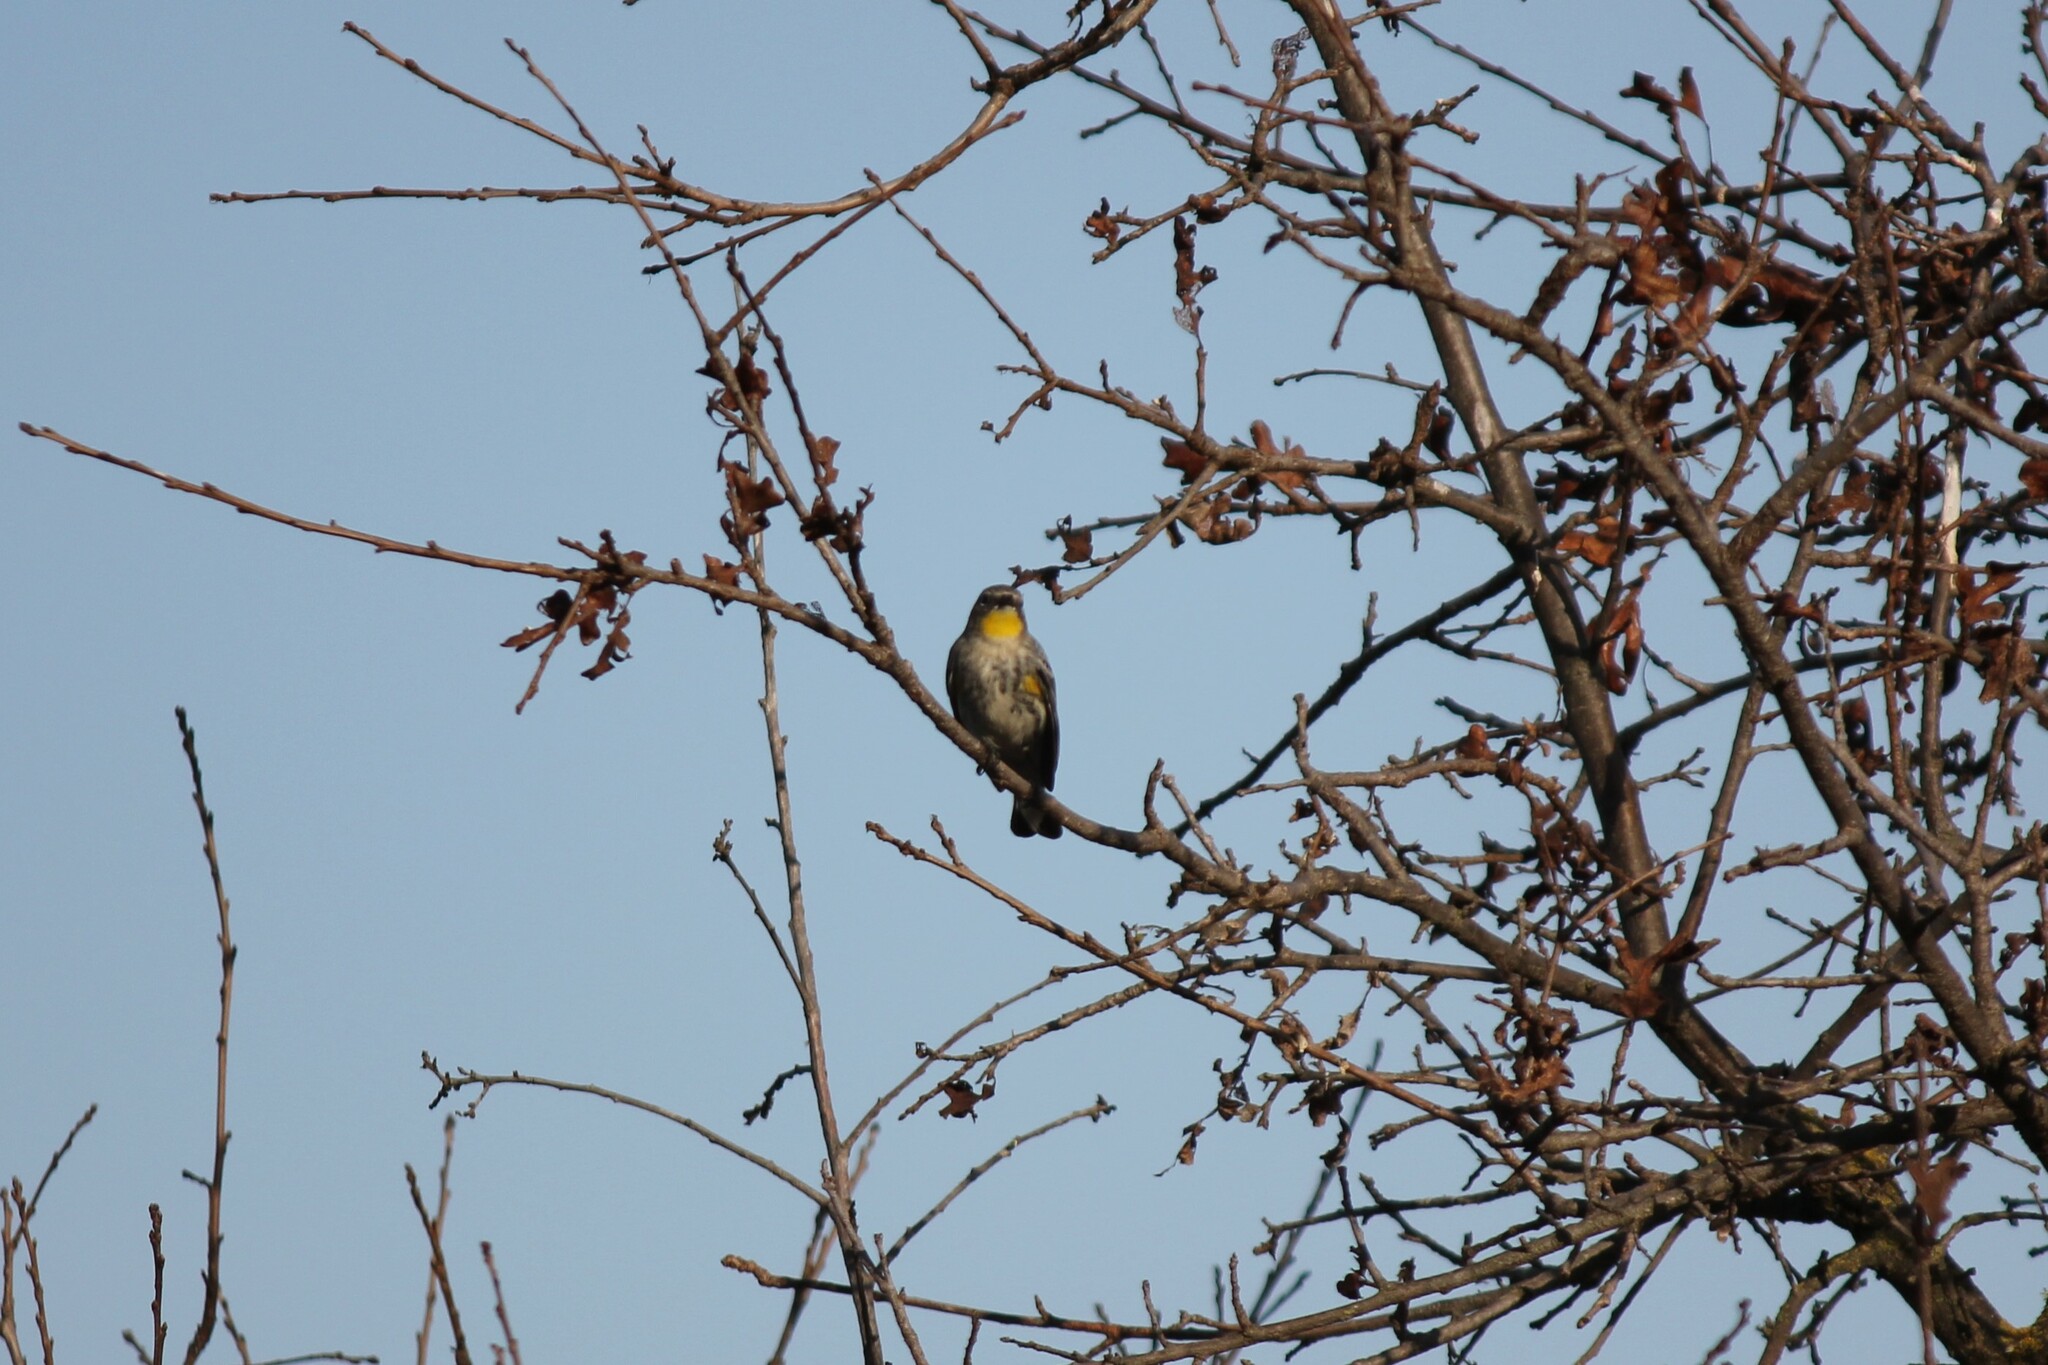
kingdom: Animalia
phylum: Chordata
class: Aves
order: Passeriformes
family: Parulidae
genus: Setophaga
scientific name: Setophaga coronata
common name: Myrtle warbler
